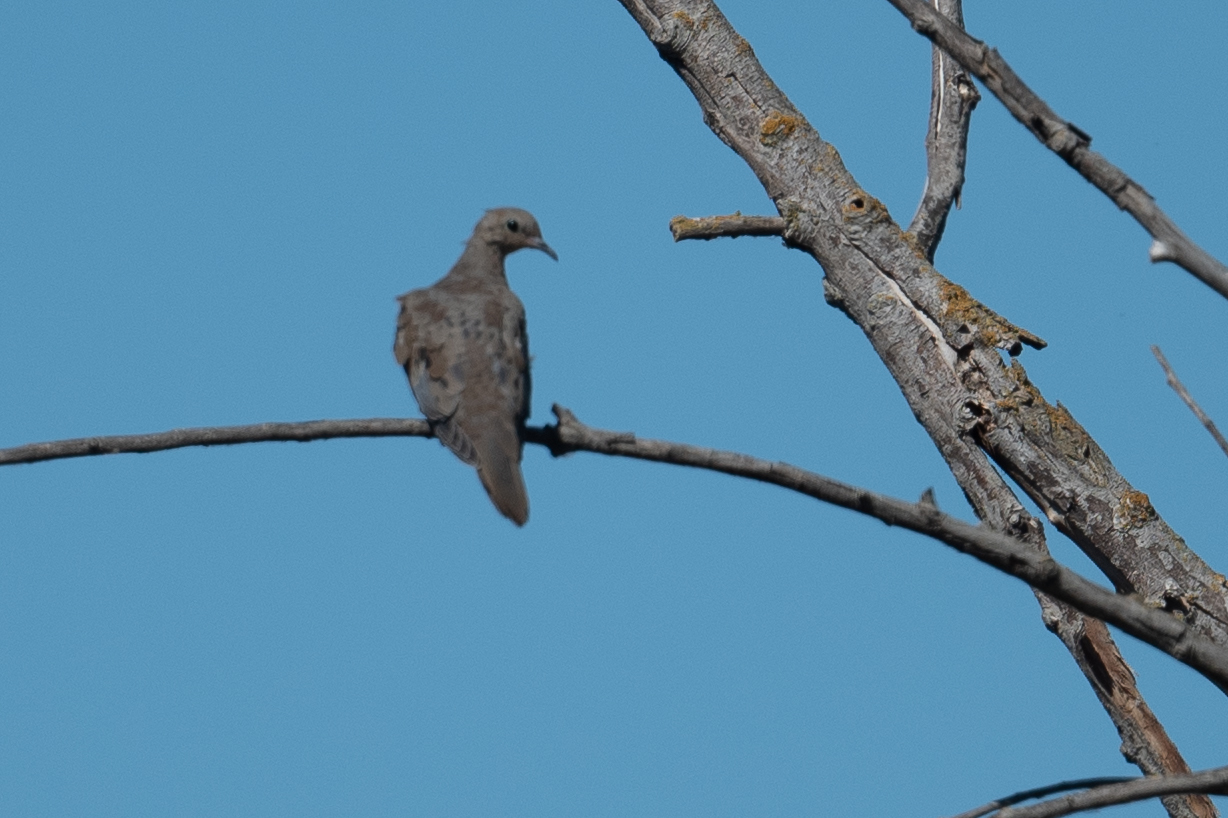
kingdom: Animalia
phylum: Chordata
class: Aves
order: Columbiformes
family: Columbidae
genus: Zenaida
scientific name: Zenaida macroura
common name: Mourning dove
